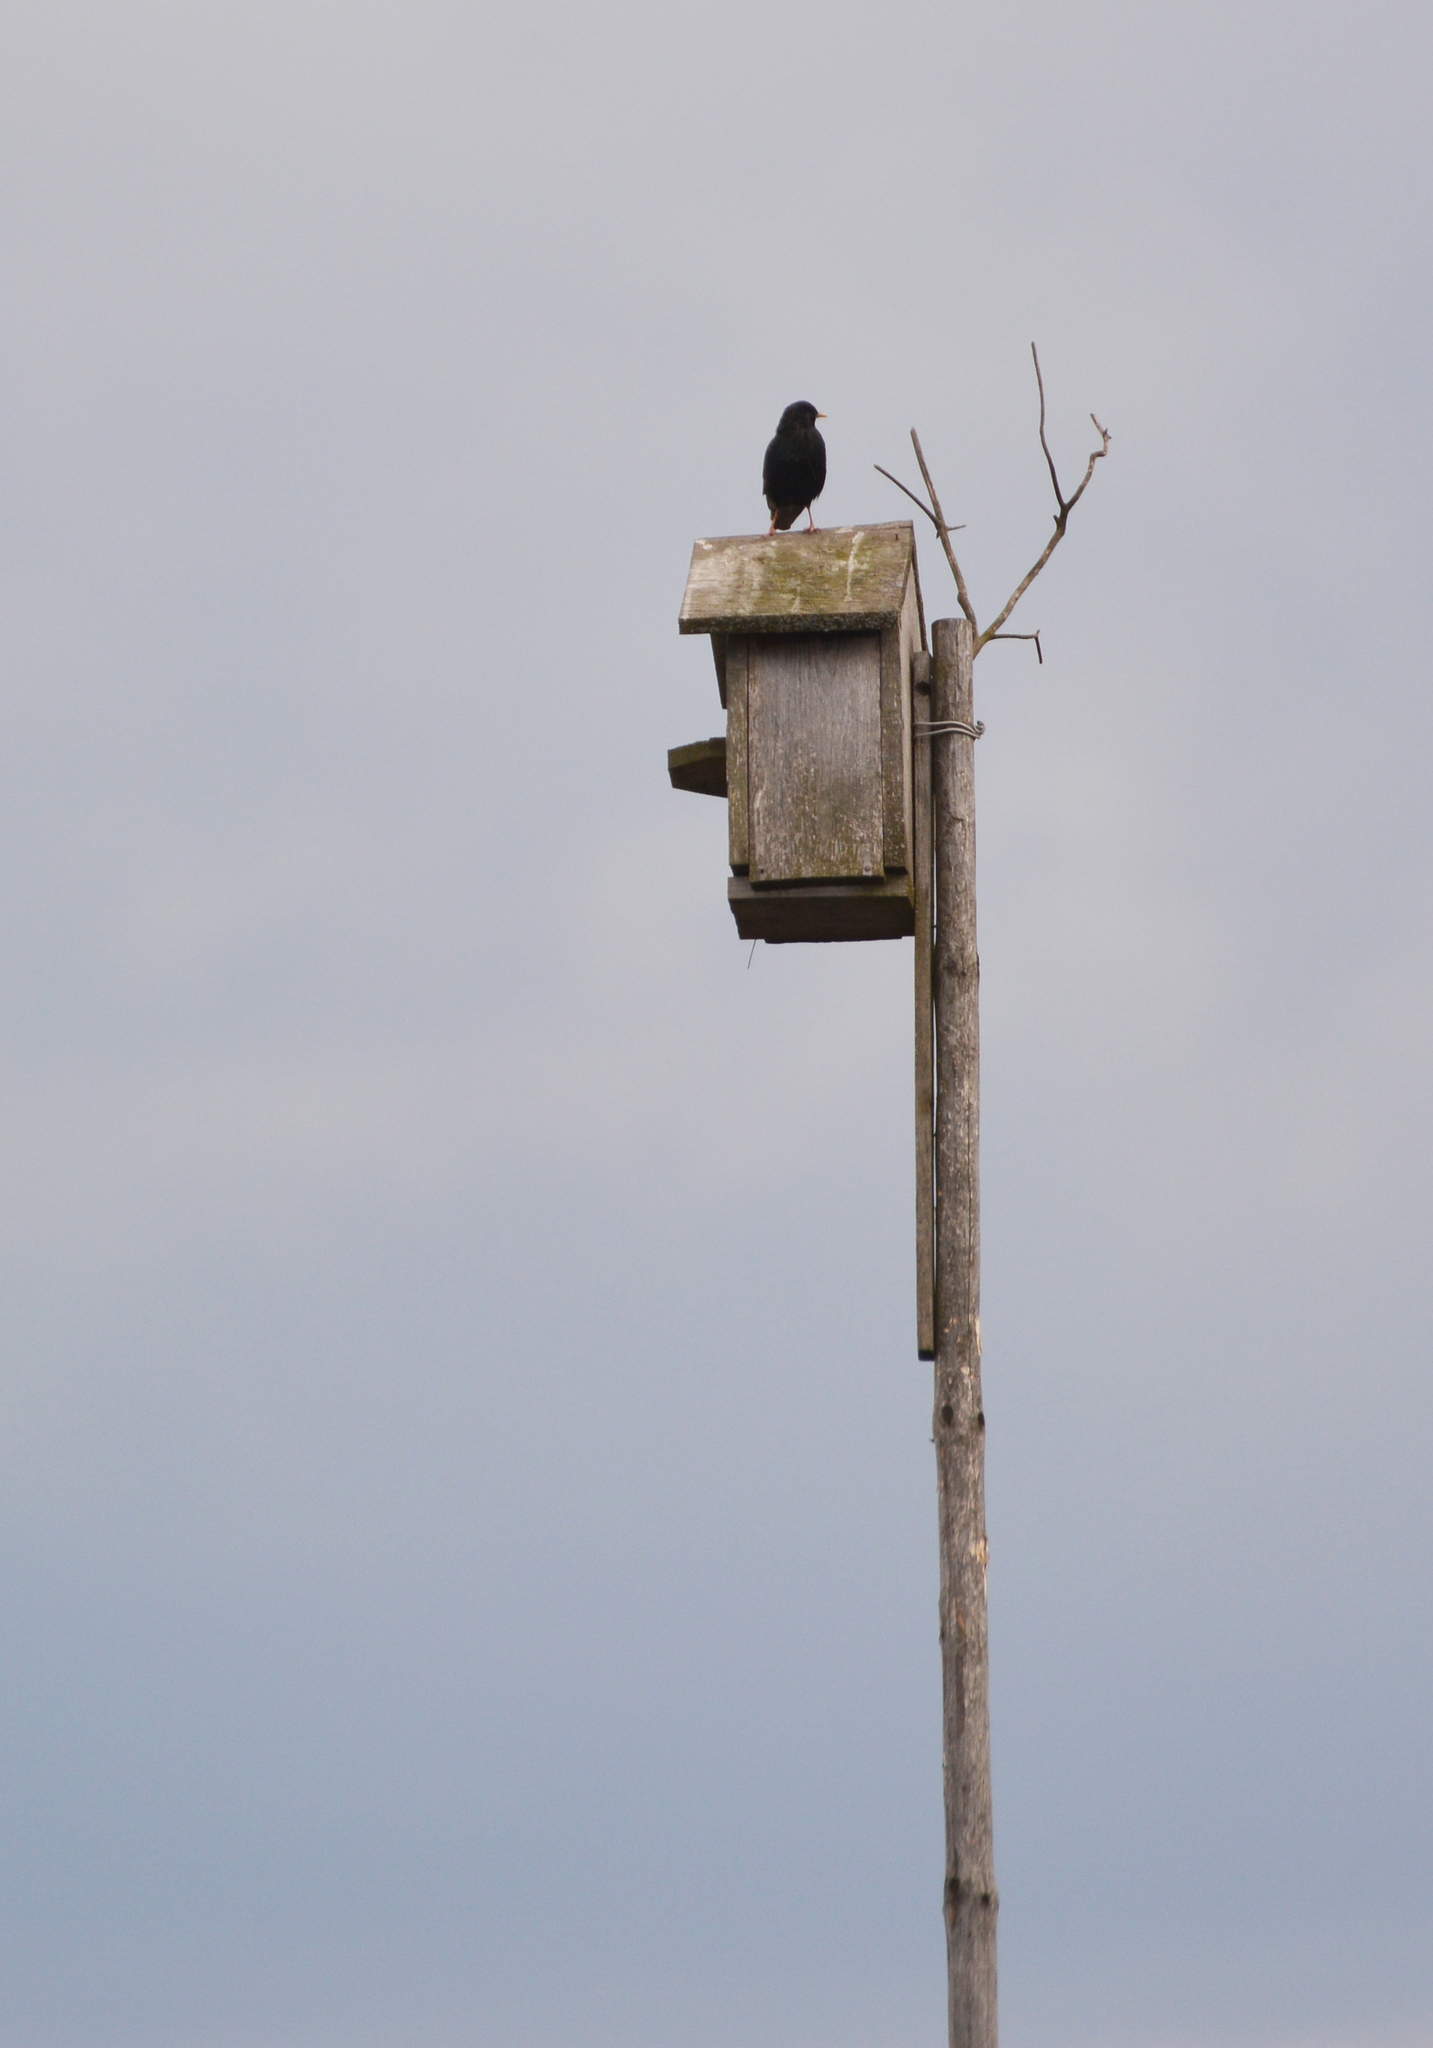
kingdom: Animalia
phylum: Chordata
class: Aves
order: Passeriformes
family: Sturnidae
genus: Sturnus
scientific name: Sturnus vulgaris
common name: Common starling
